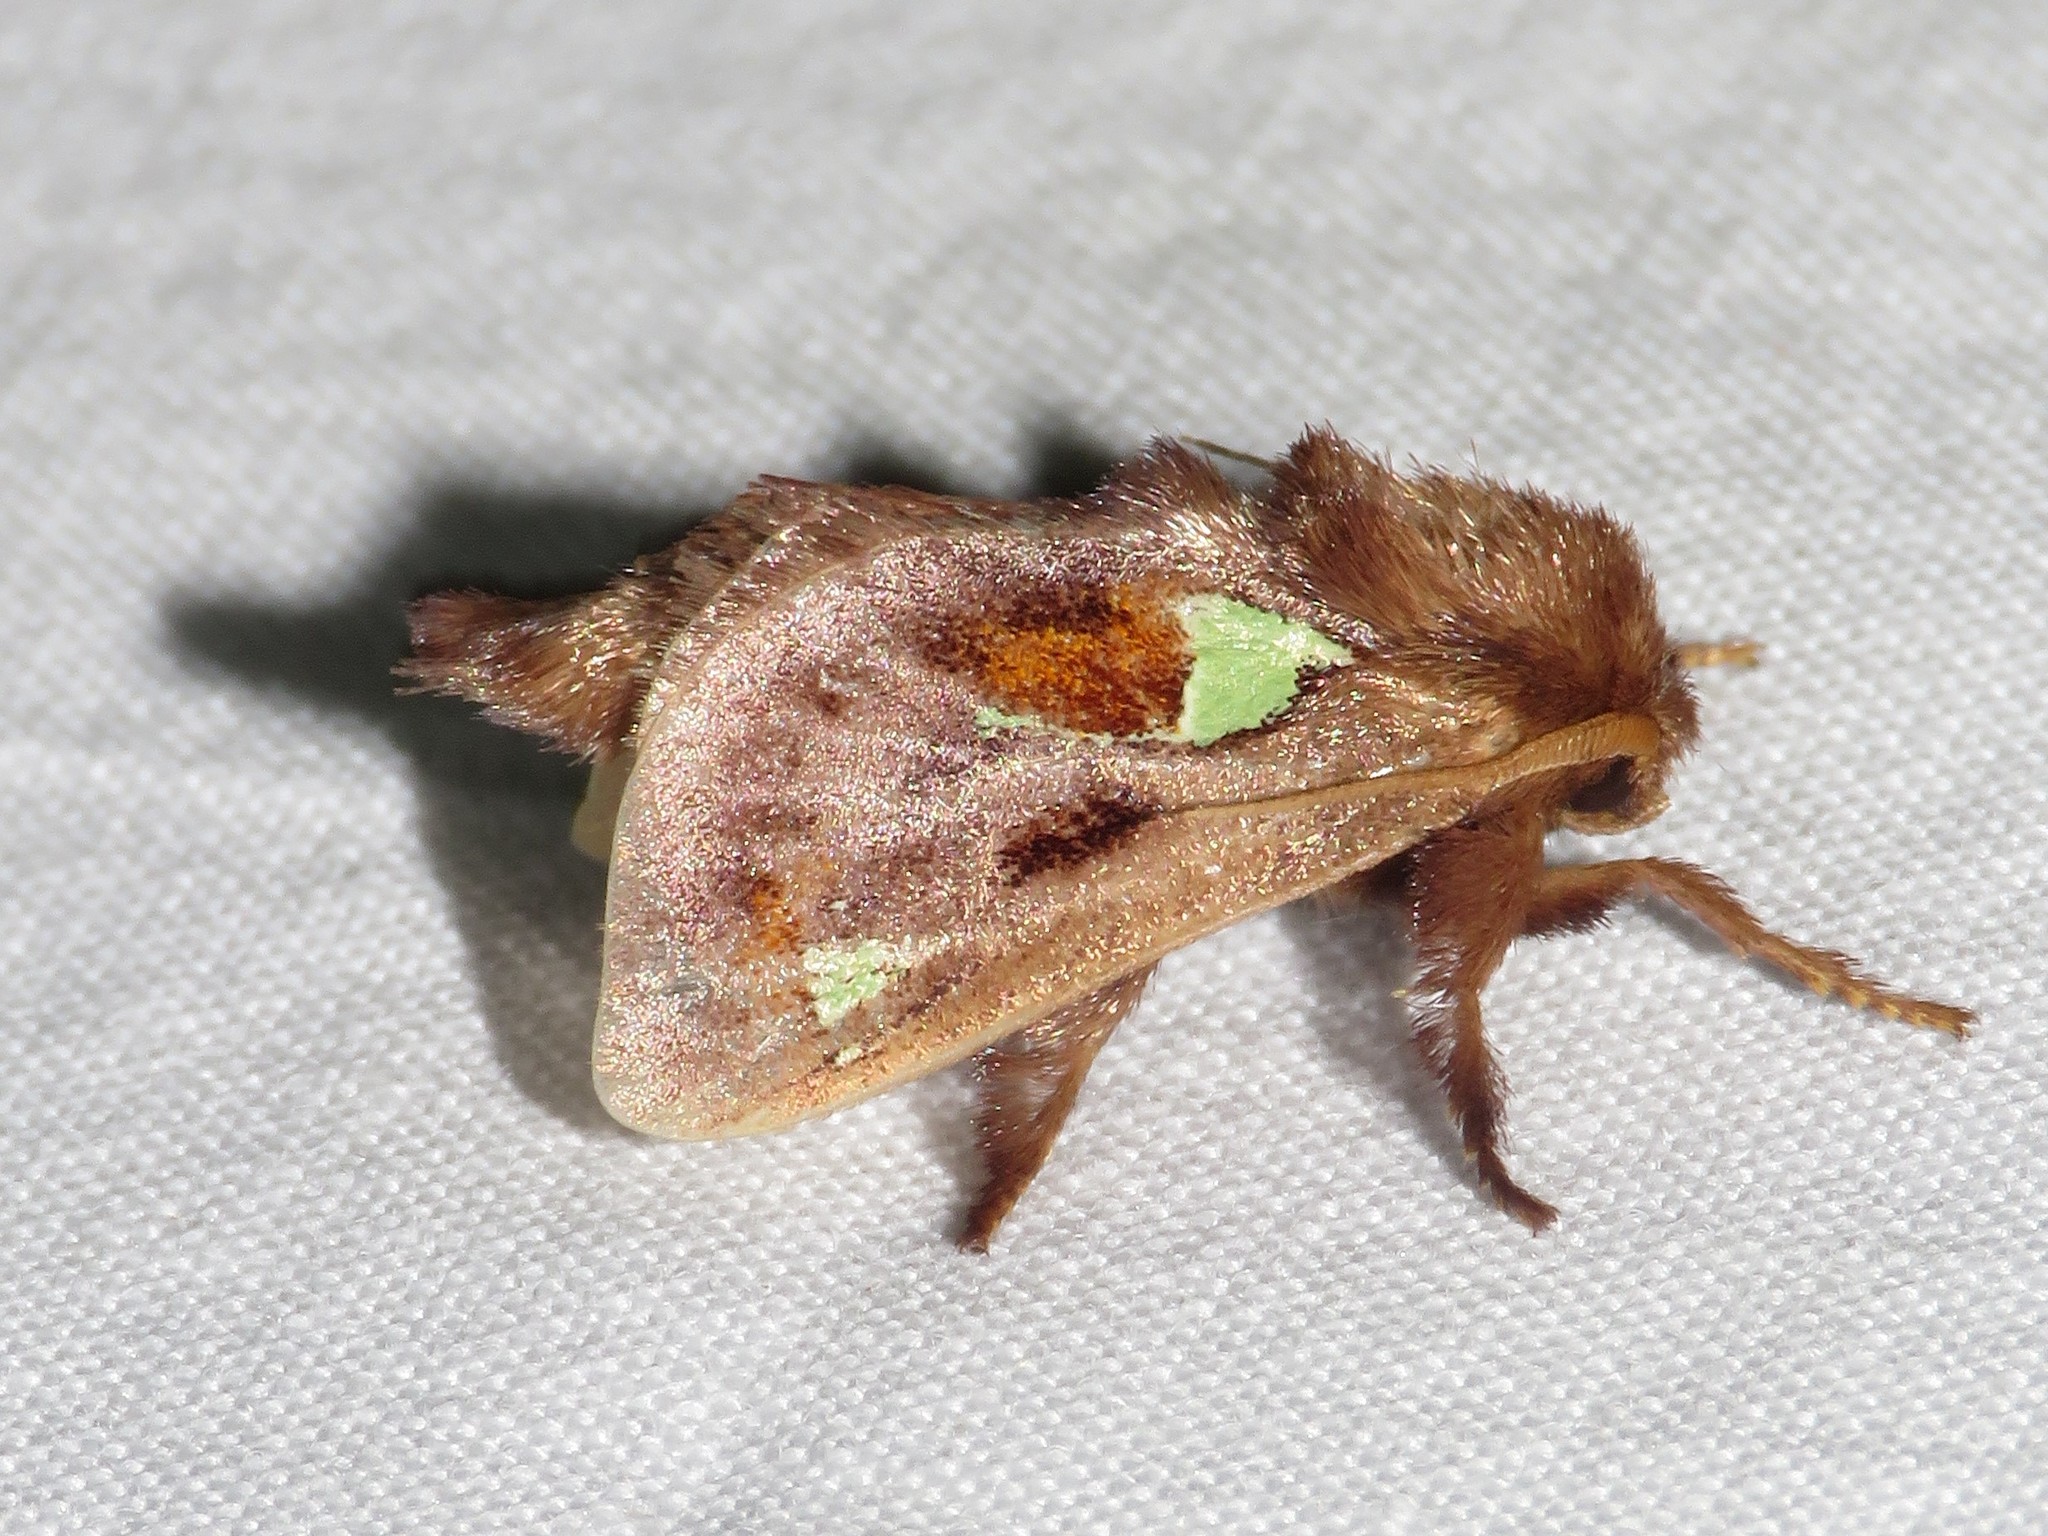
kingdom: Animalia
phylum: Arthropoda
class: Insecta
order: Lepidoptera
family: Limacodidae
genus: Euclea
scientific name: Euclea delphinii
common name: Spiny oak-slug moth
